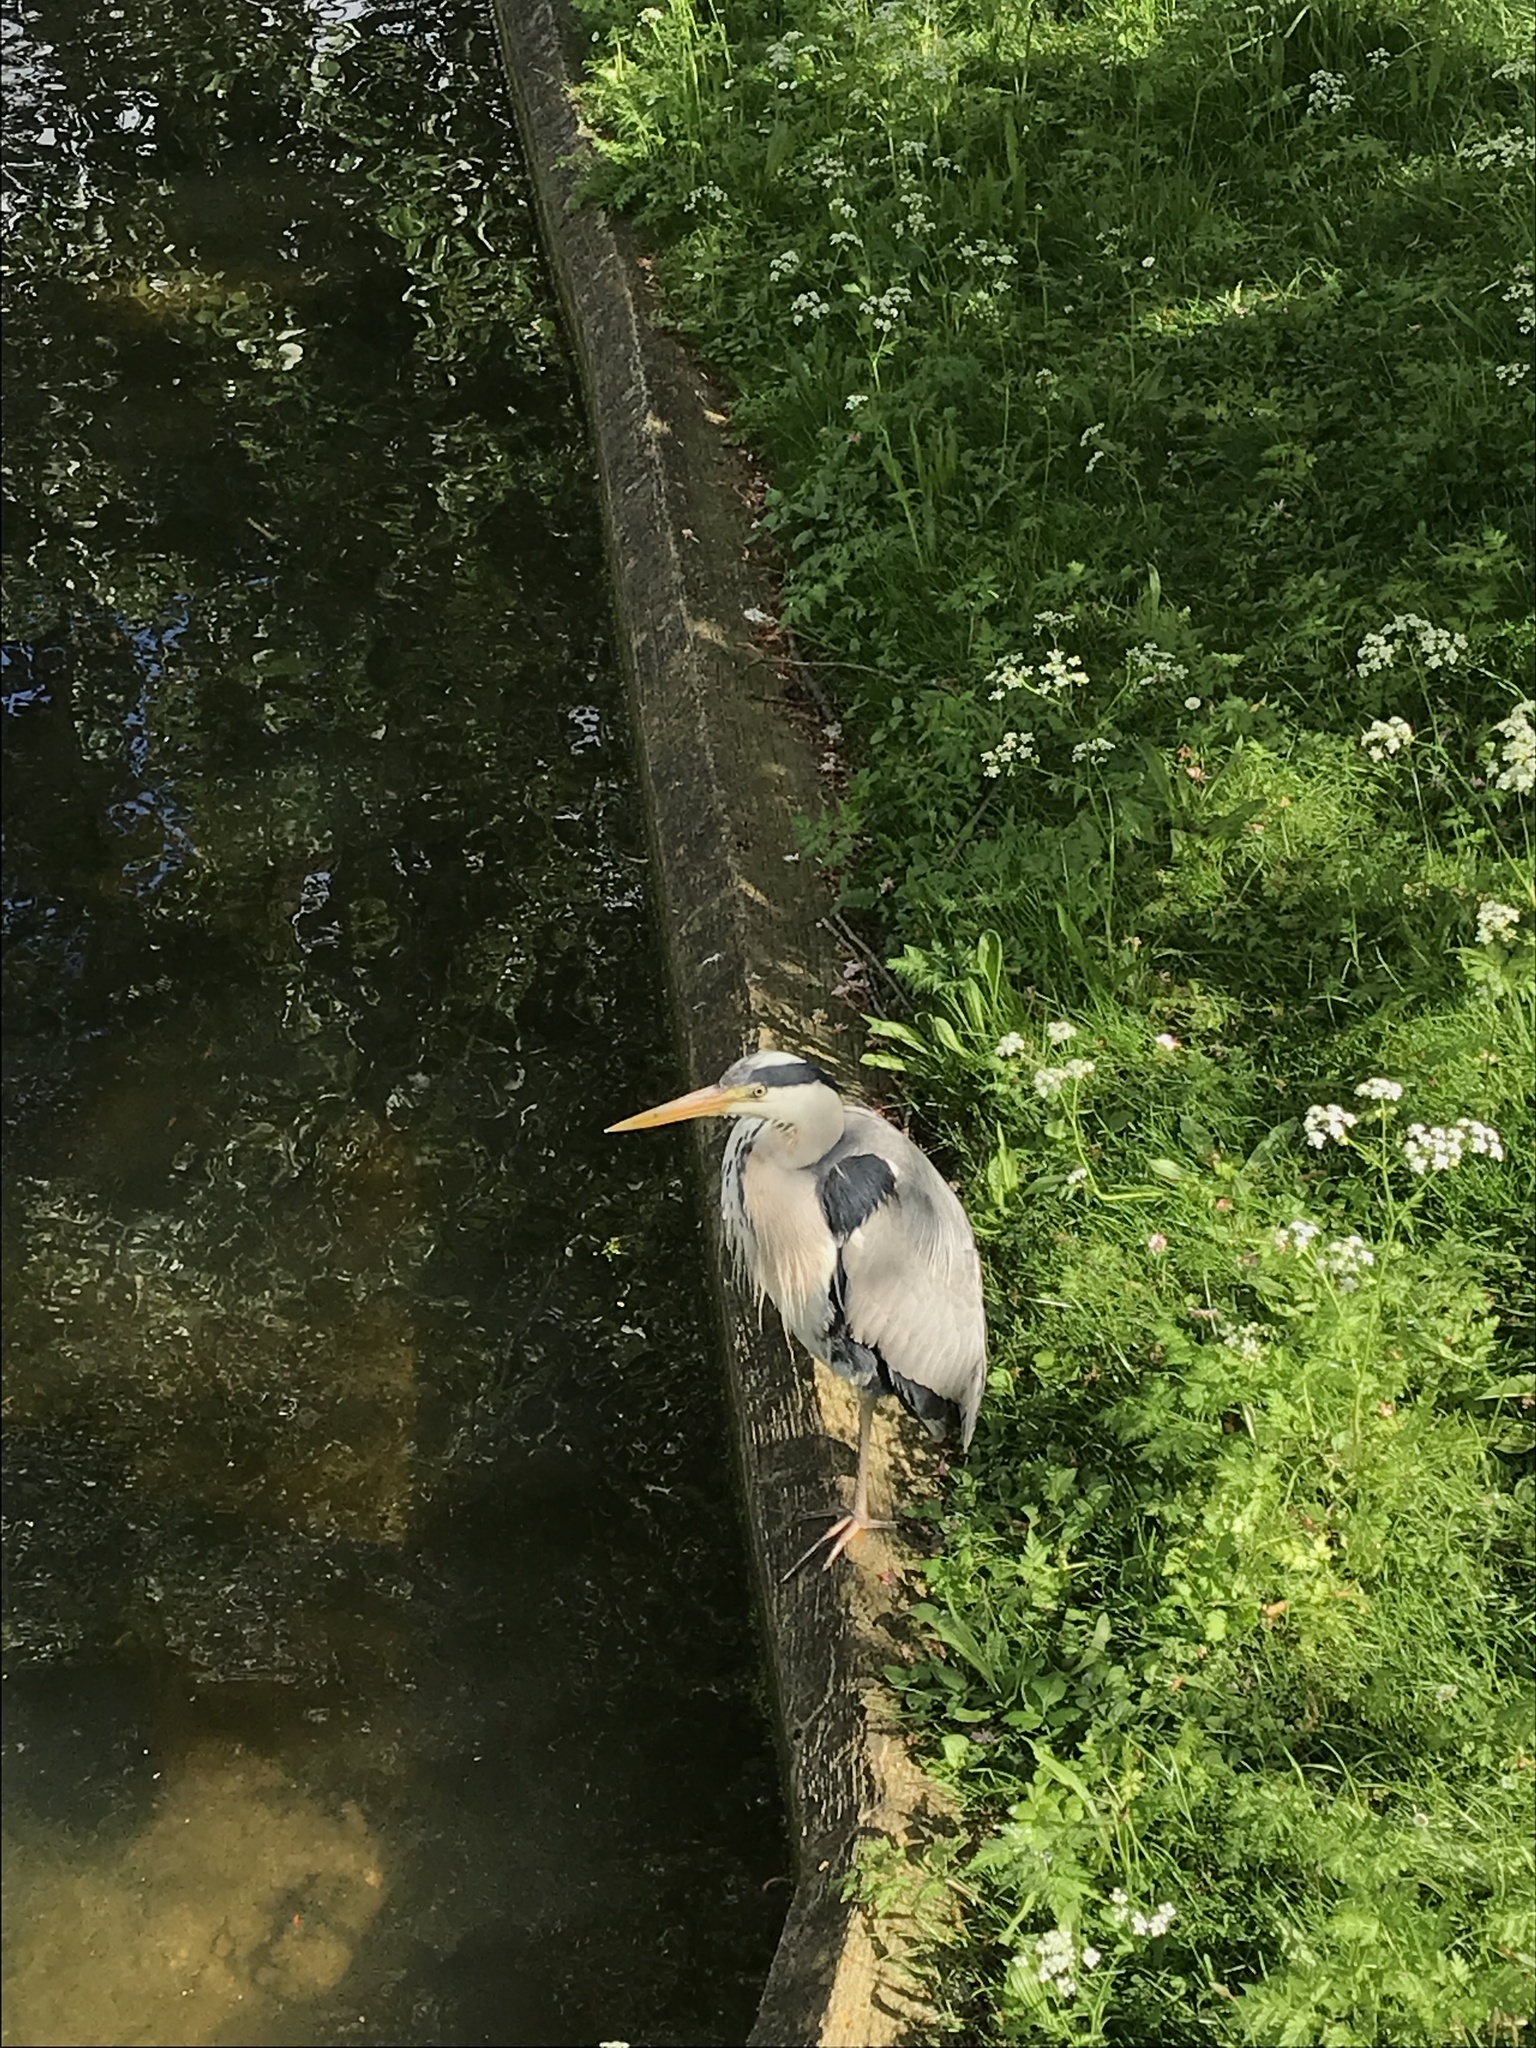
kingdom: Animalia
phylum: Chordata
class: Aves
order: Pelecaniformes
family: Ardeidae
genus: Ardea
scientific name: Ardea cinerea
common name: Grey heron
